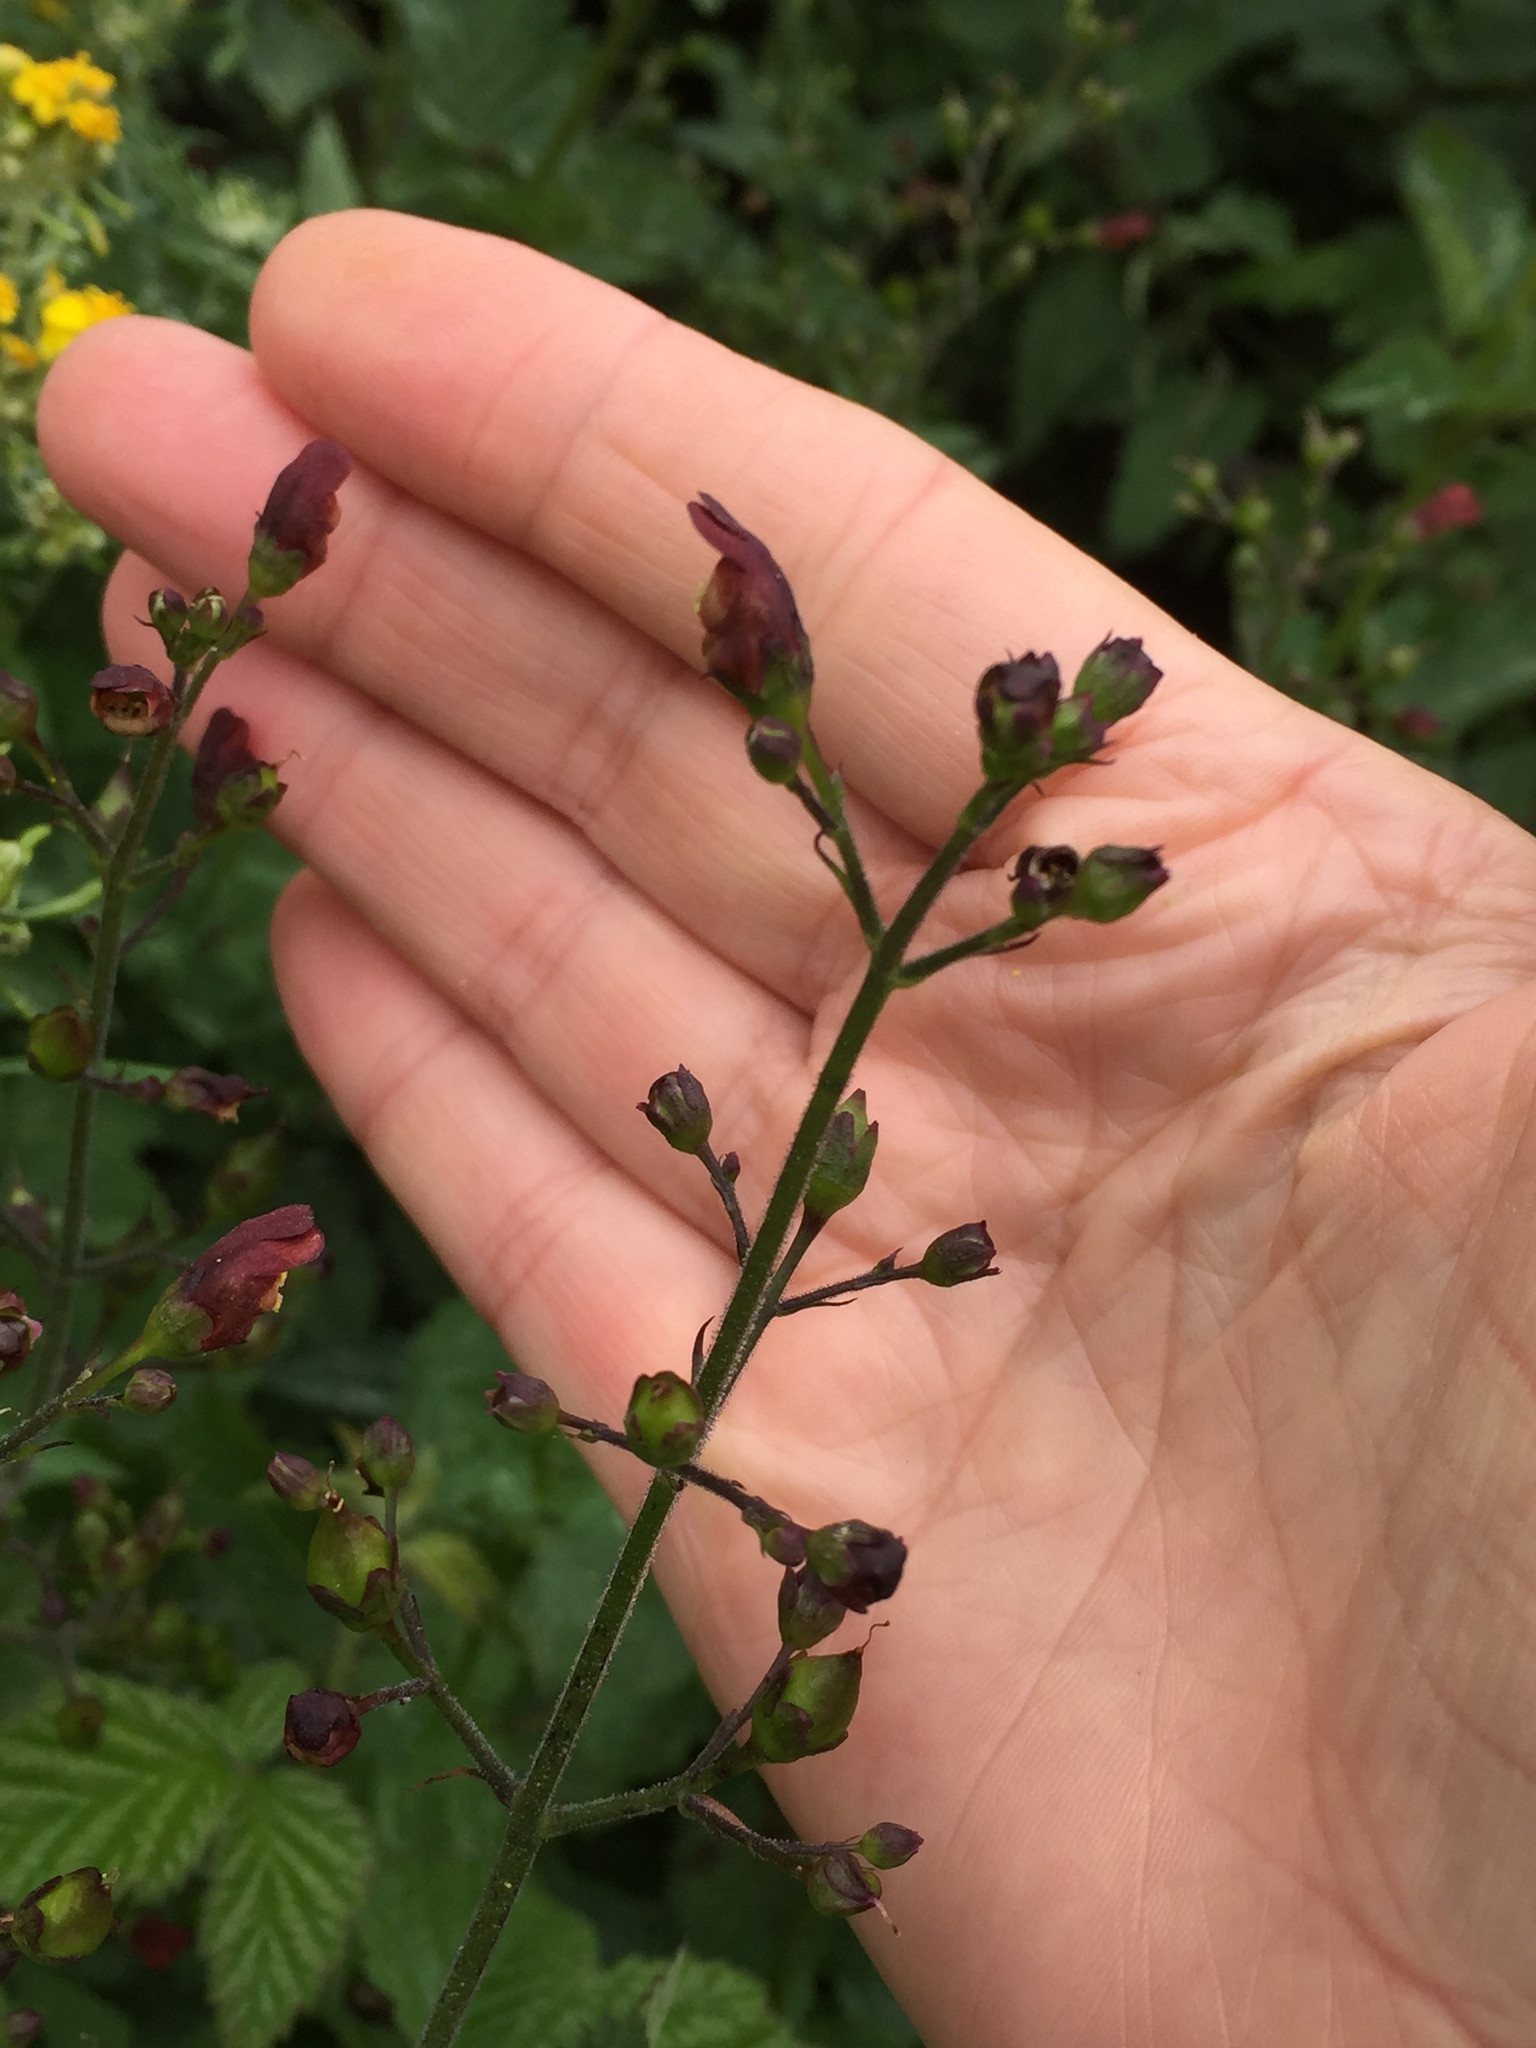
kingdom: Plantae
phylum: Tracheophyta
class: Magnoliopsida
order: Lamiales
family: Scrophulariaceae
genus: Scrophularia
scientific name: Scrophularia californica
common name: California figwort
